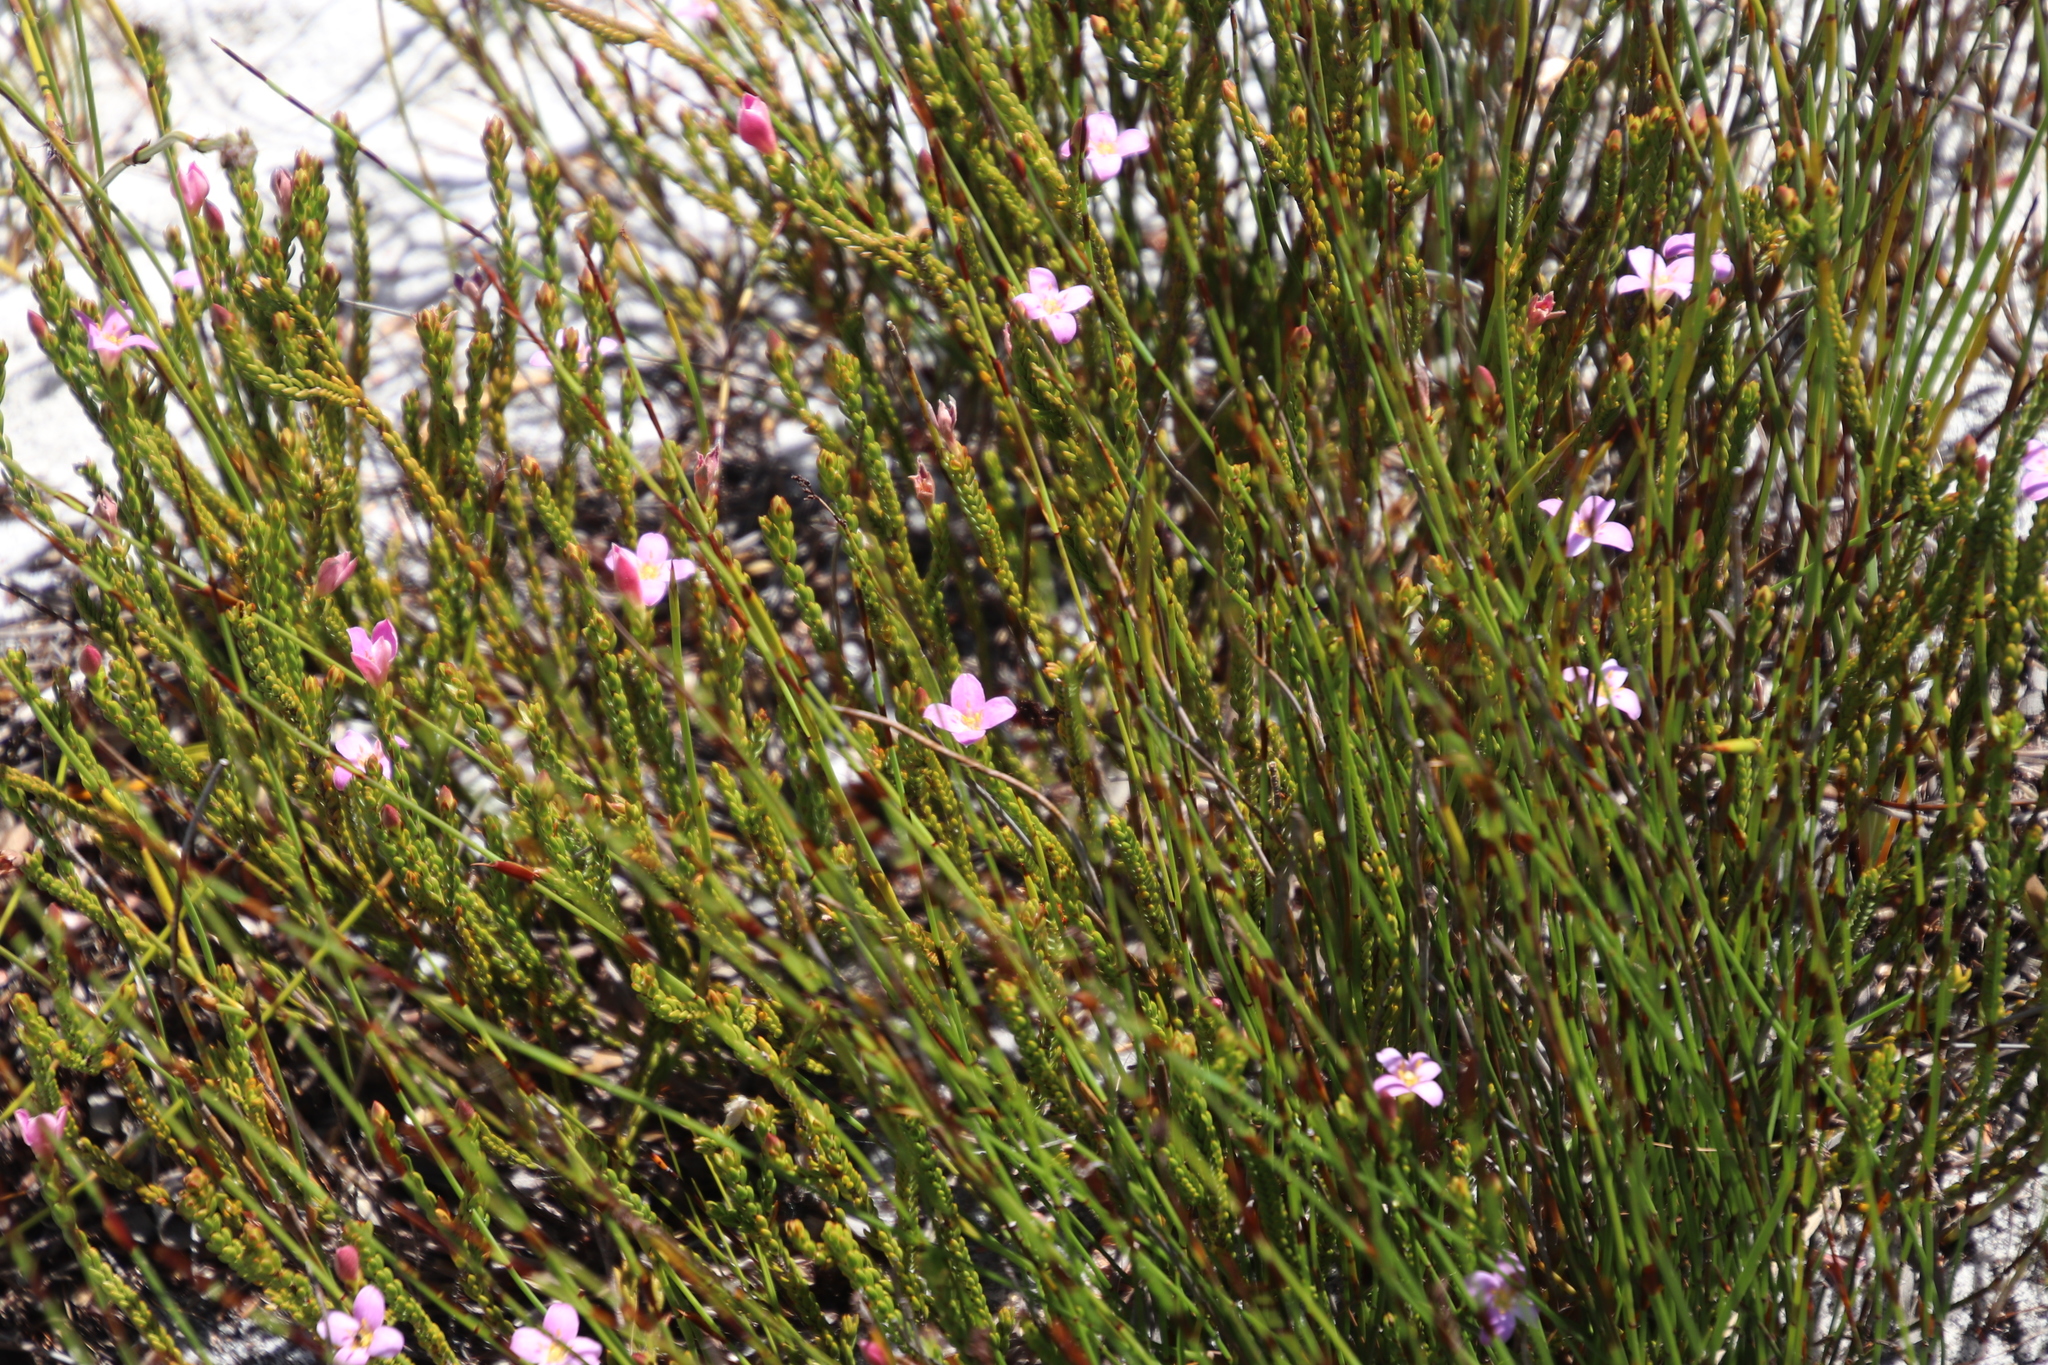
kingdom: Plantae
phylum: Tracheophyta
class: Magnoliopsida
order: Malvales
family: Thymelaeaceae
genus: Lachnaea
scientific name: Lachnaea grandiflora
